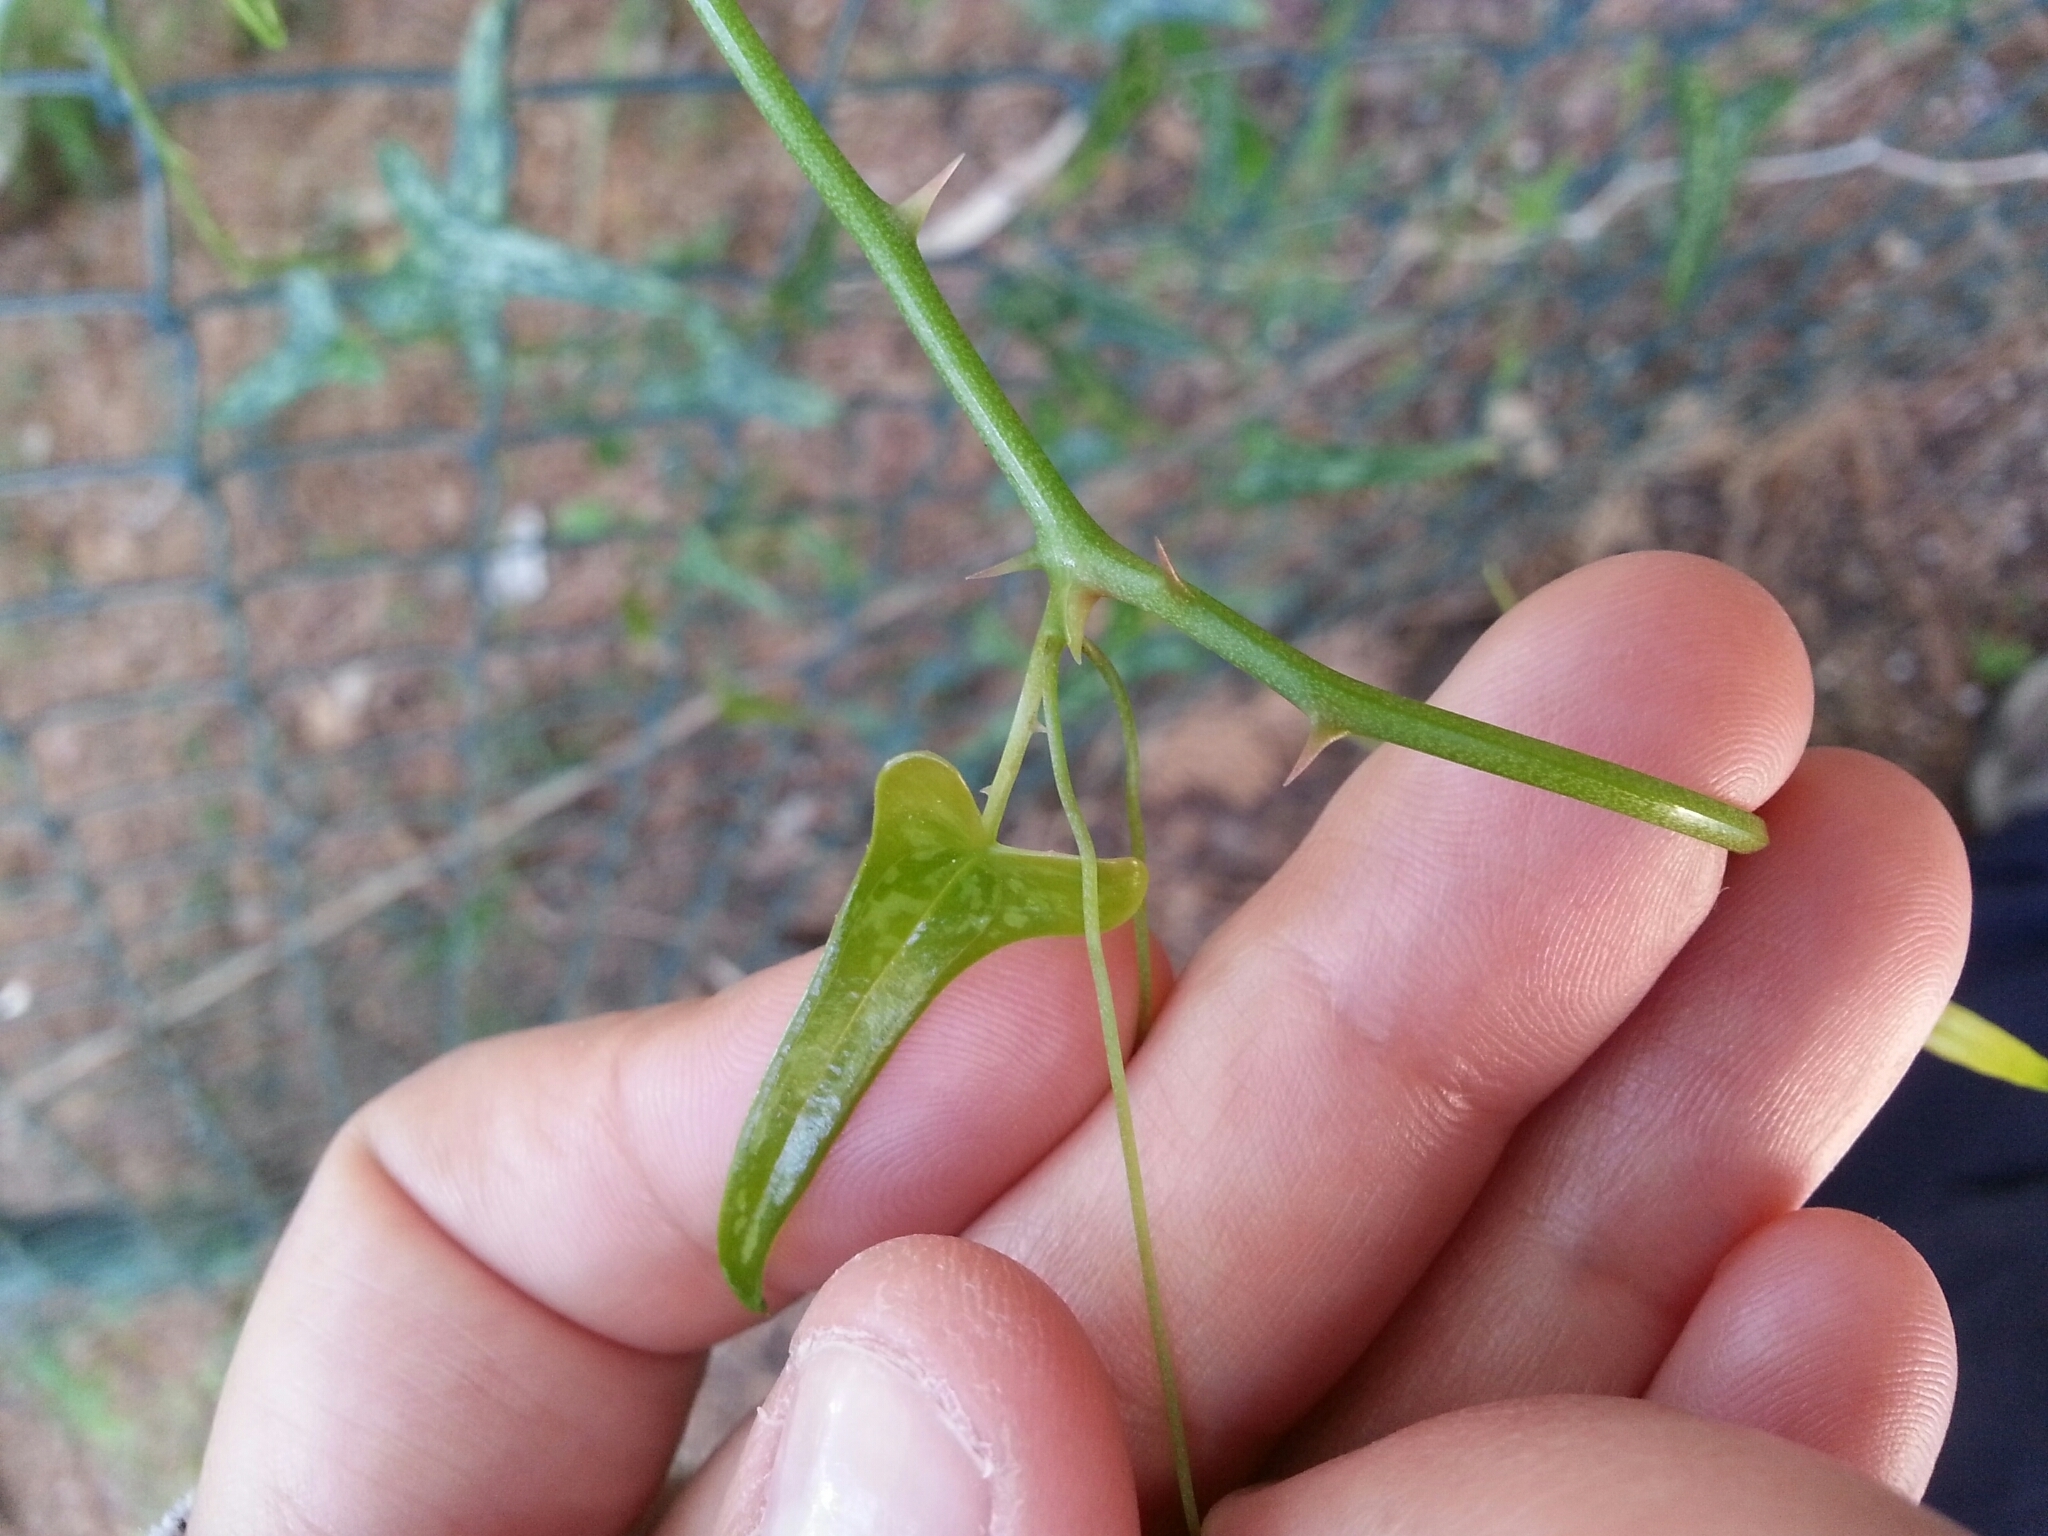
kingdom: Plantae
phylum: Tracheophyta
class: Liliopsida
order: Liliales
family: Smilacaceae
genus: Smilax
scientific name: Smilax aspera
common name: Common smilax
